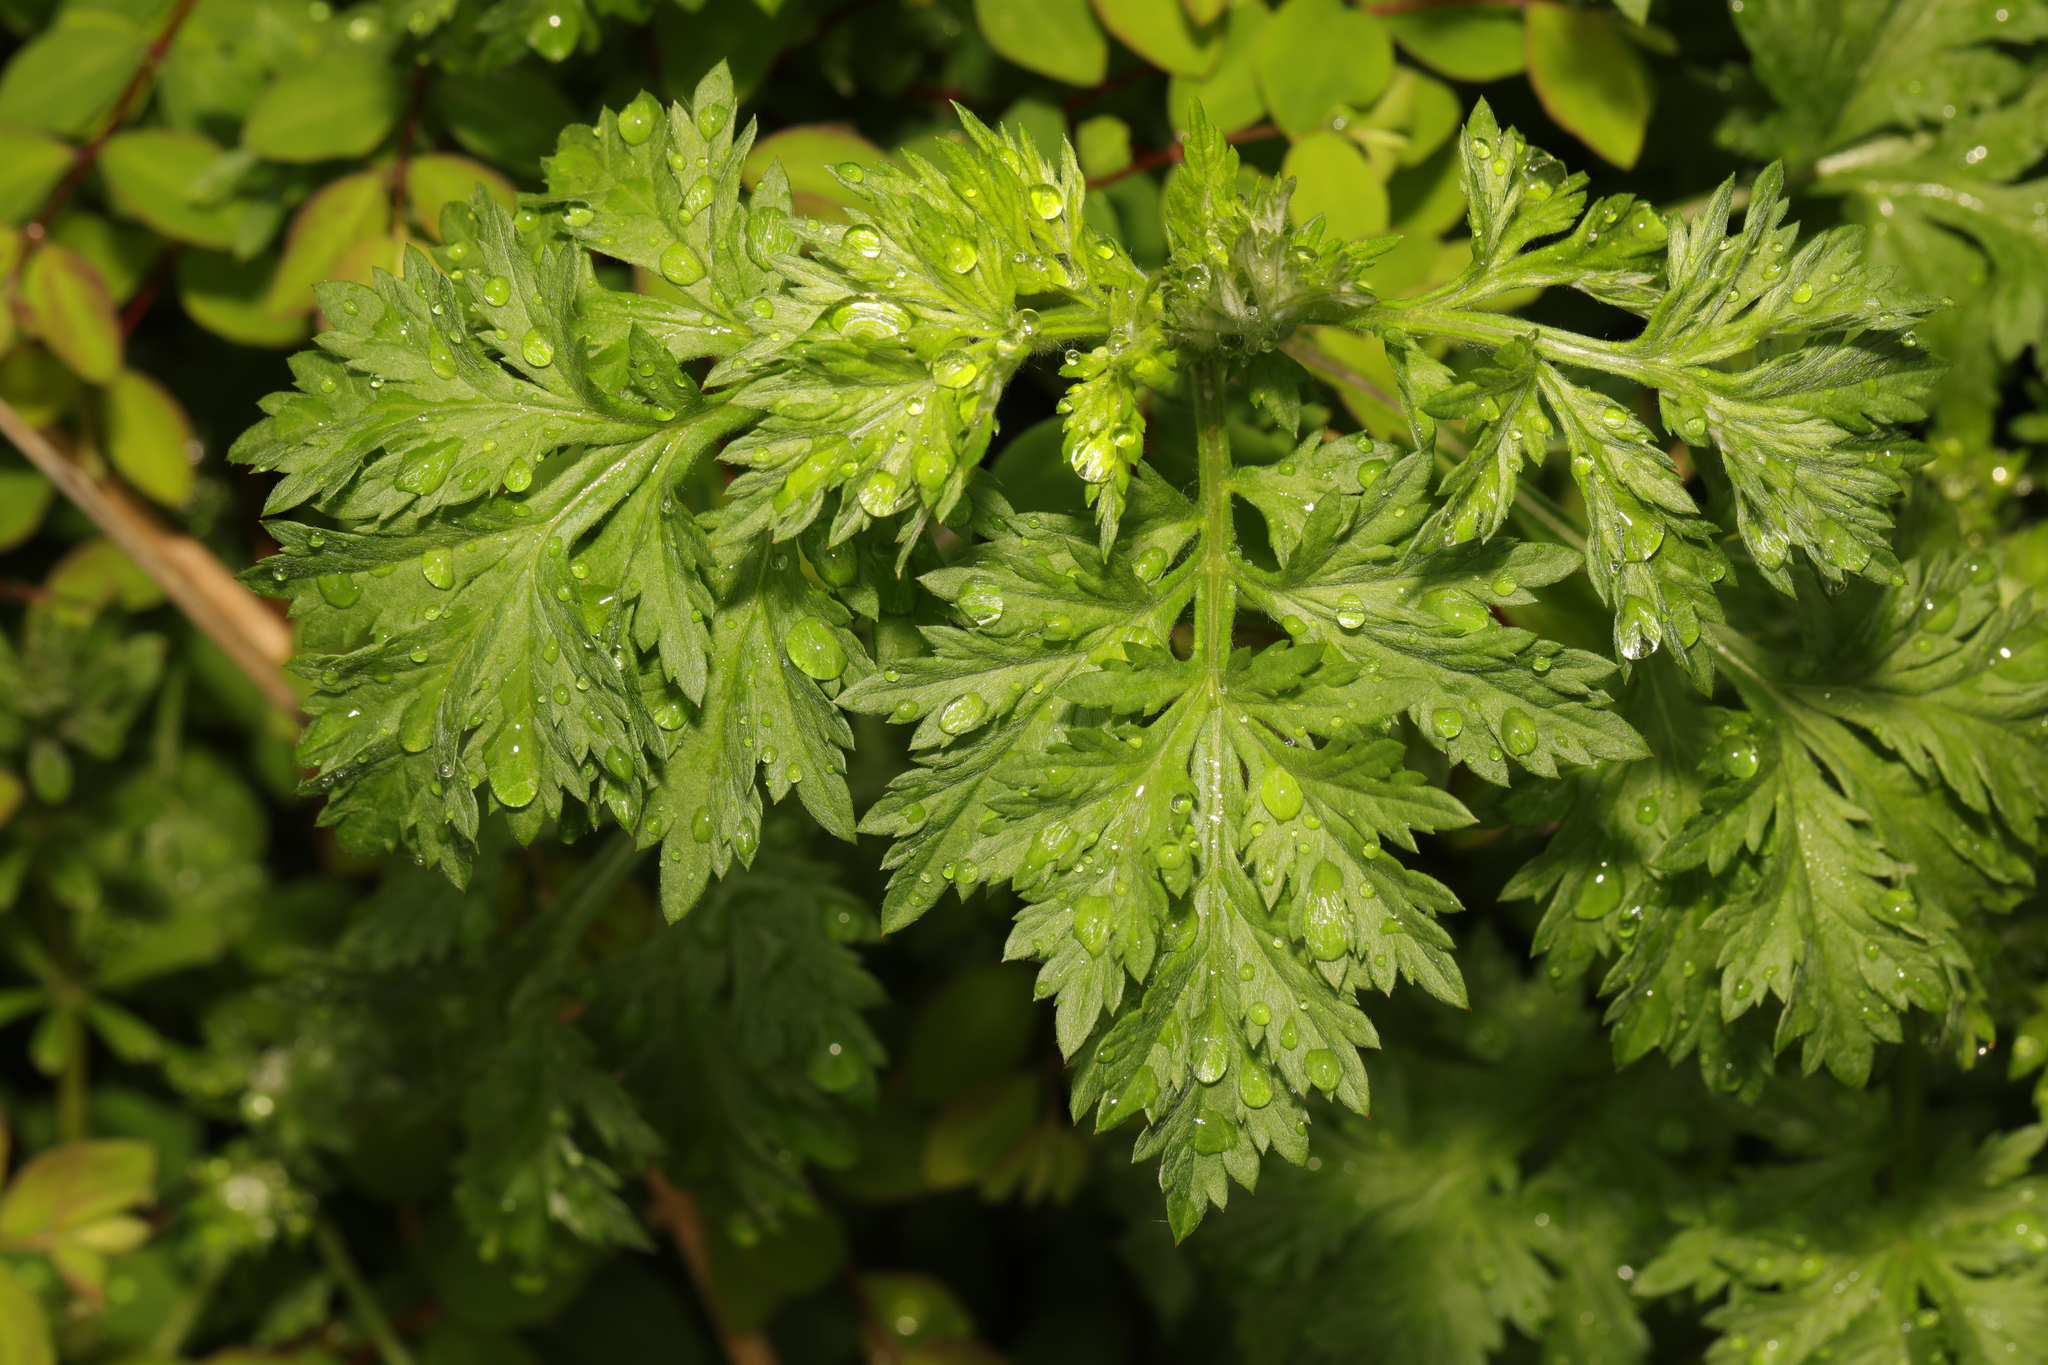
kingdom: Plantae
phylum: Tracheophyta
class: Magnoliopsida
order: Asterales
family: Asteraceae
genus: Artemisia
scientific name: Artemisia vulgaris
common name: Mugwort
